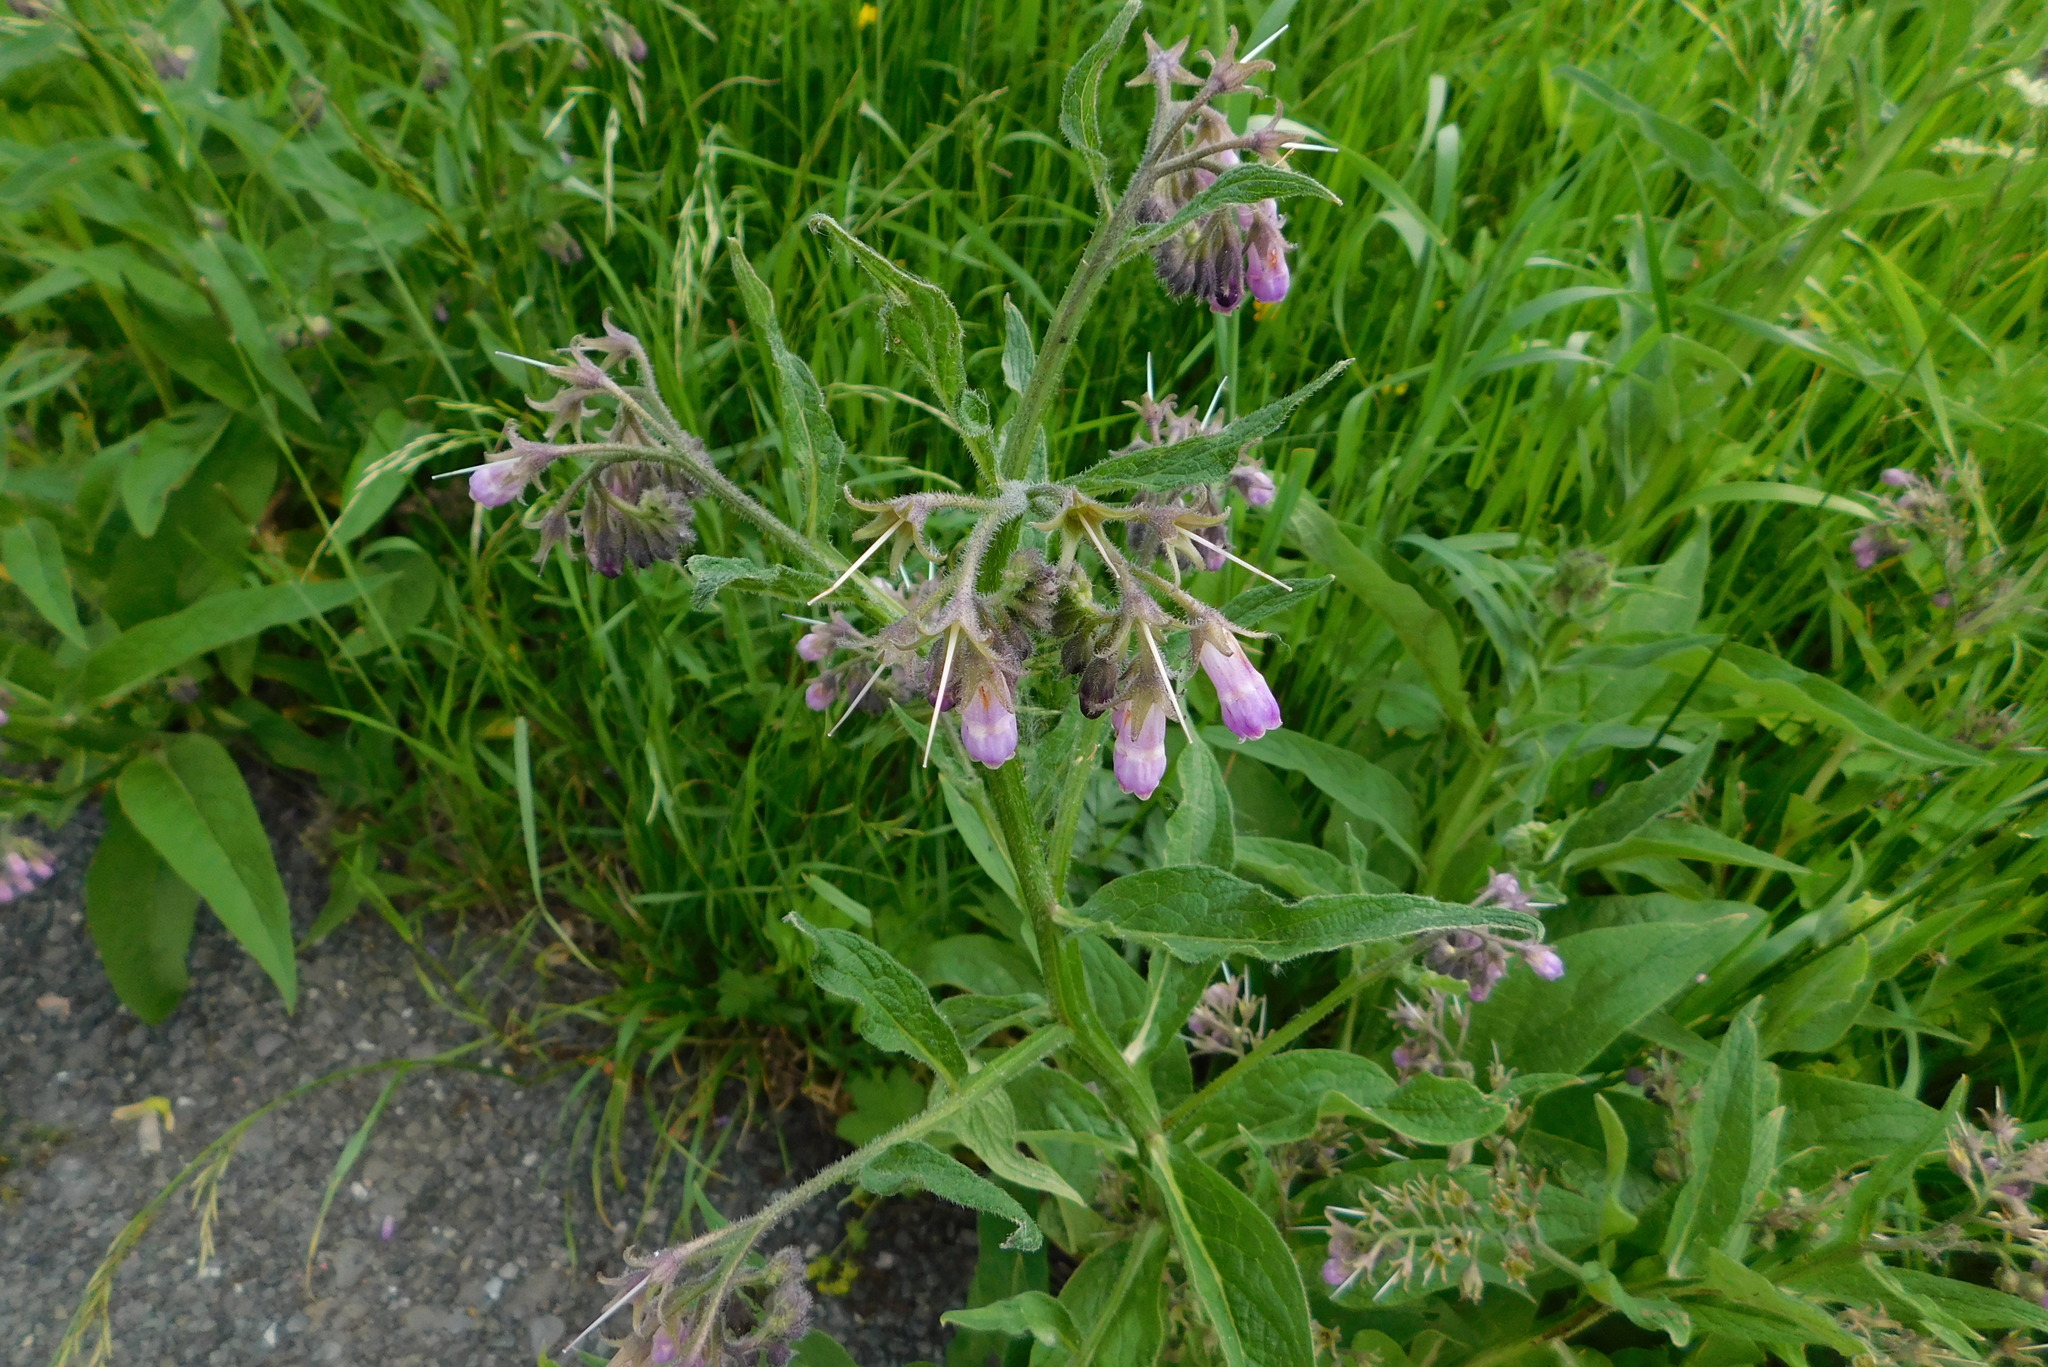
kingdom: Plantae
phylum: Tracheophyta
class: Magnoliopsida
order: Boraginales
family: Boraginaceae
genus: Symphytum
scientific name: Symphytum officinale
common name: Common comfrey
